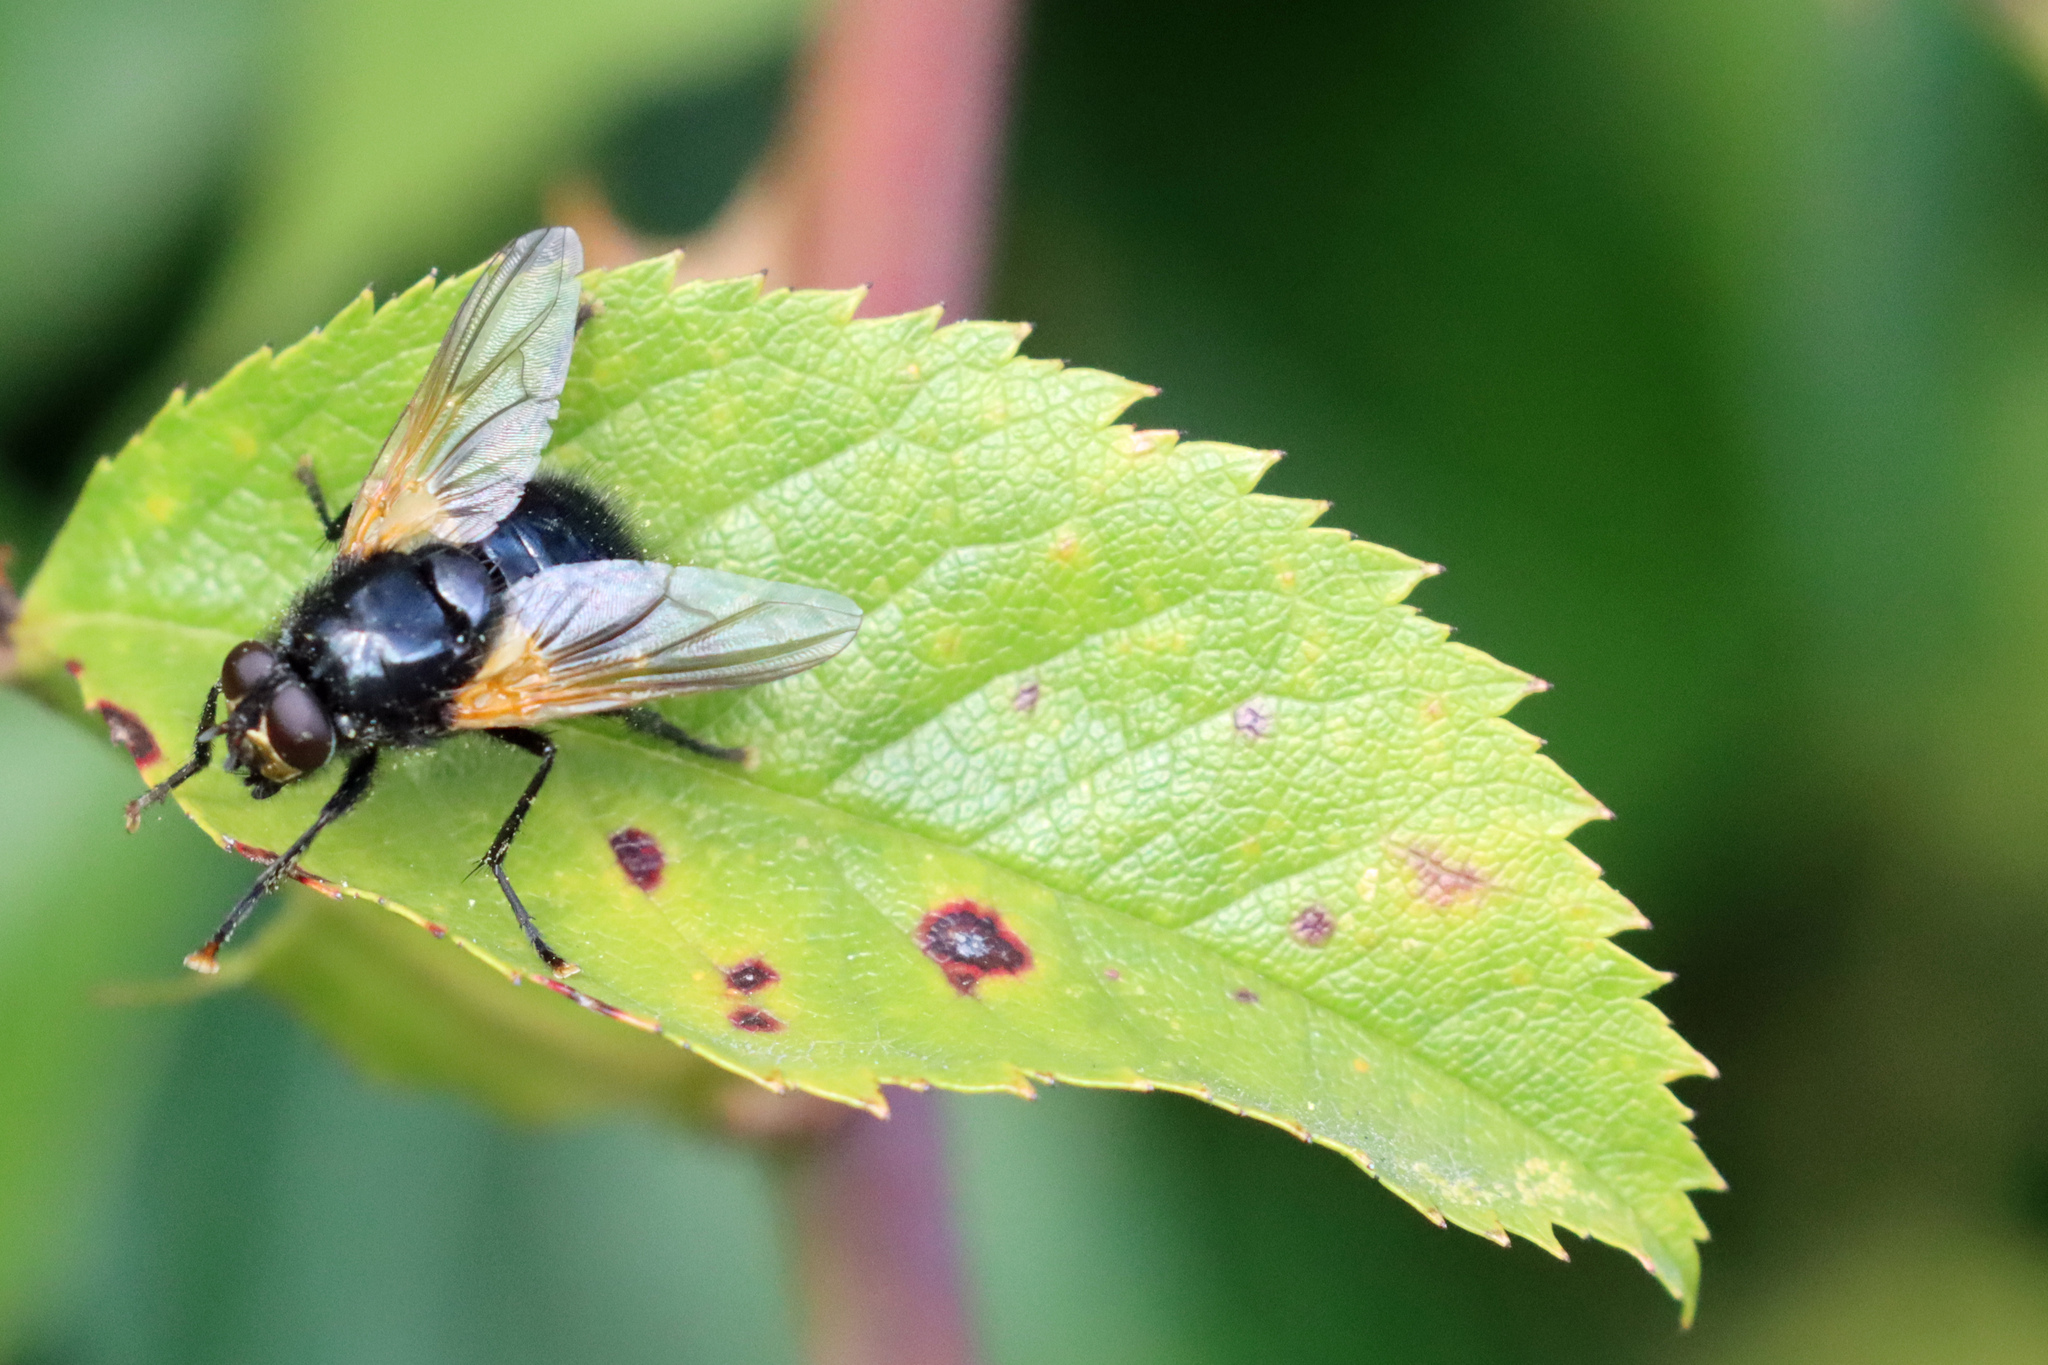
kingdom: Animalia
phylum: Arthropoda
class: Insecta
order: Diptera
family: Muscidae
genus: Mesembrina
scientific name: Mesembrina meridiana
